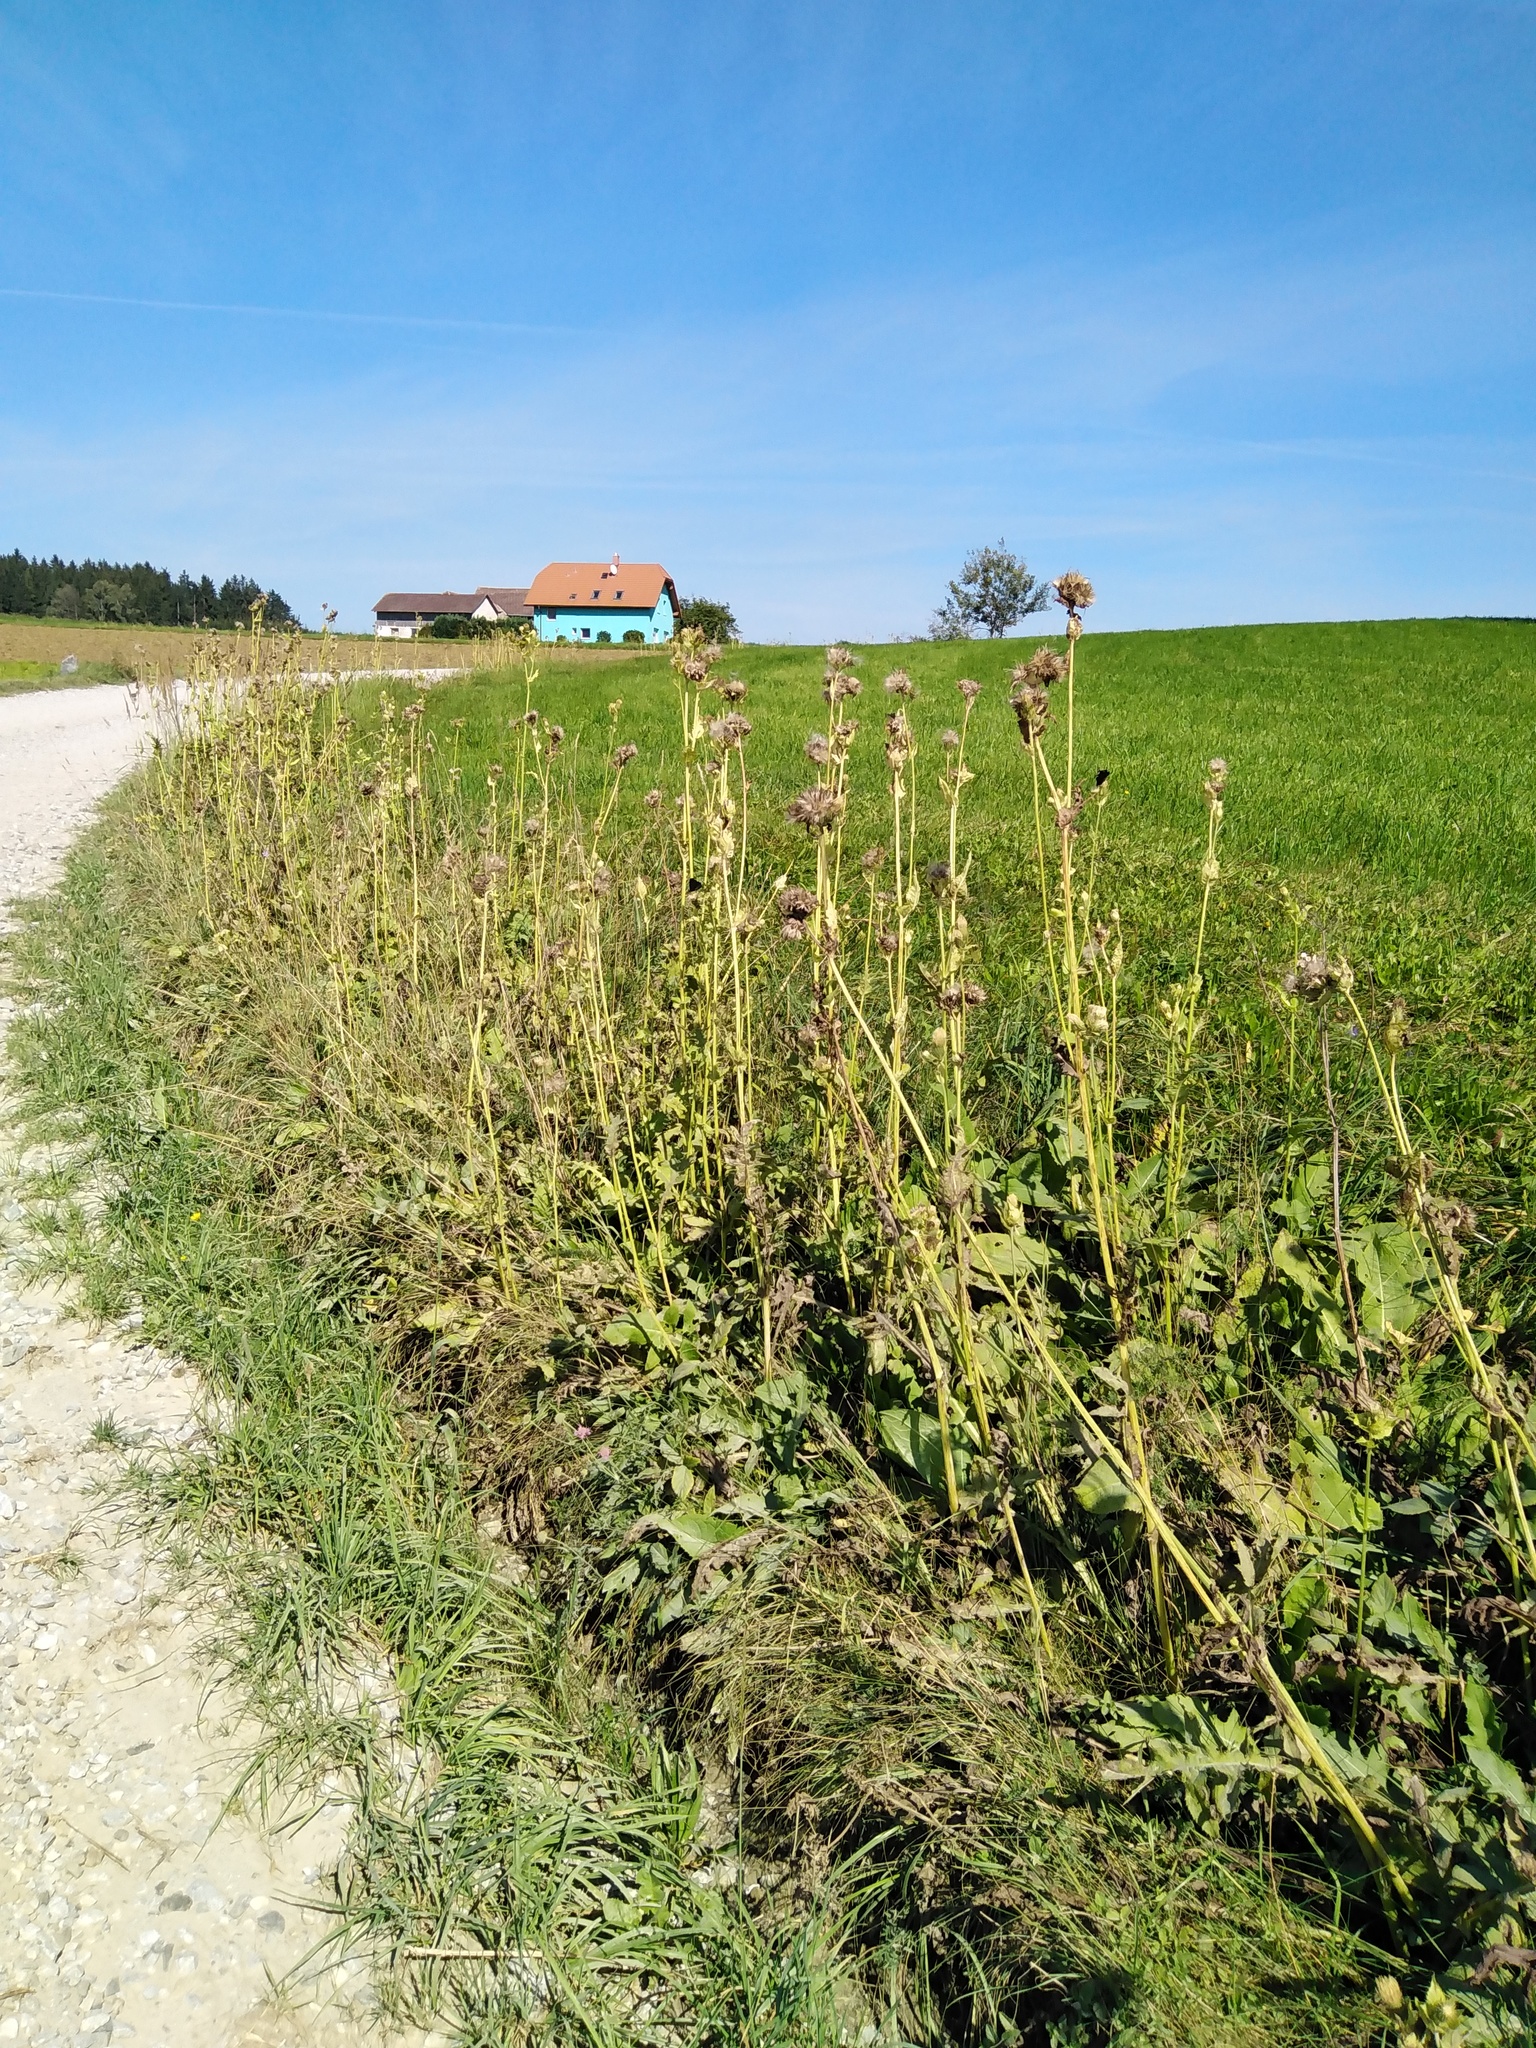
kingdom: Plantae
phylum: Tracheophyta
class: Magnoliopsida
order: Asterales
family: Asteraceae
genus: Cirsium
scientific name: Cirsium oleraceum
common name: Cabbage thistle
